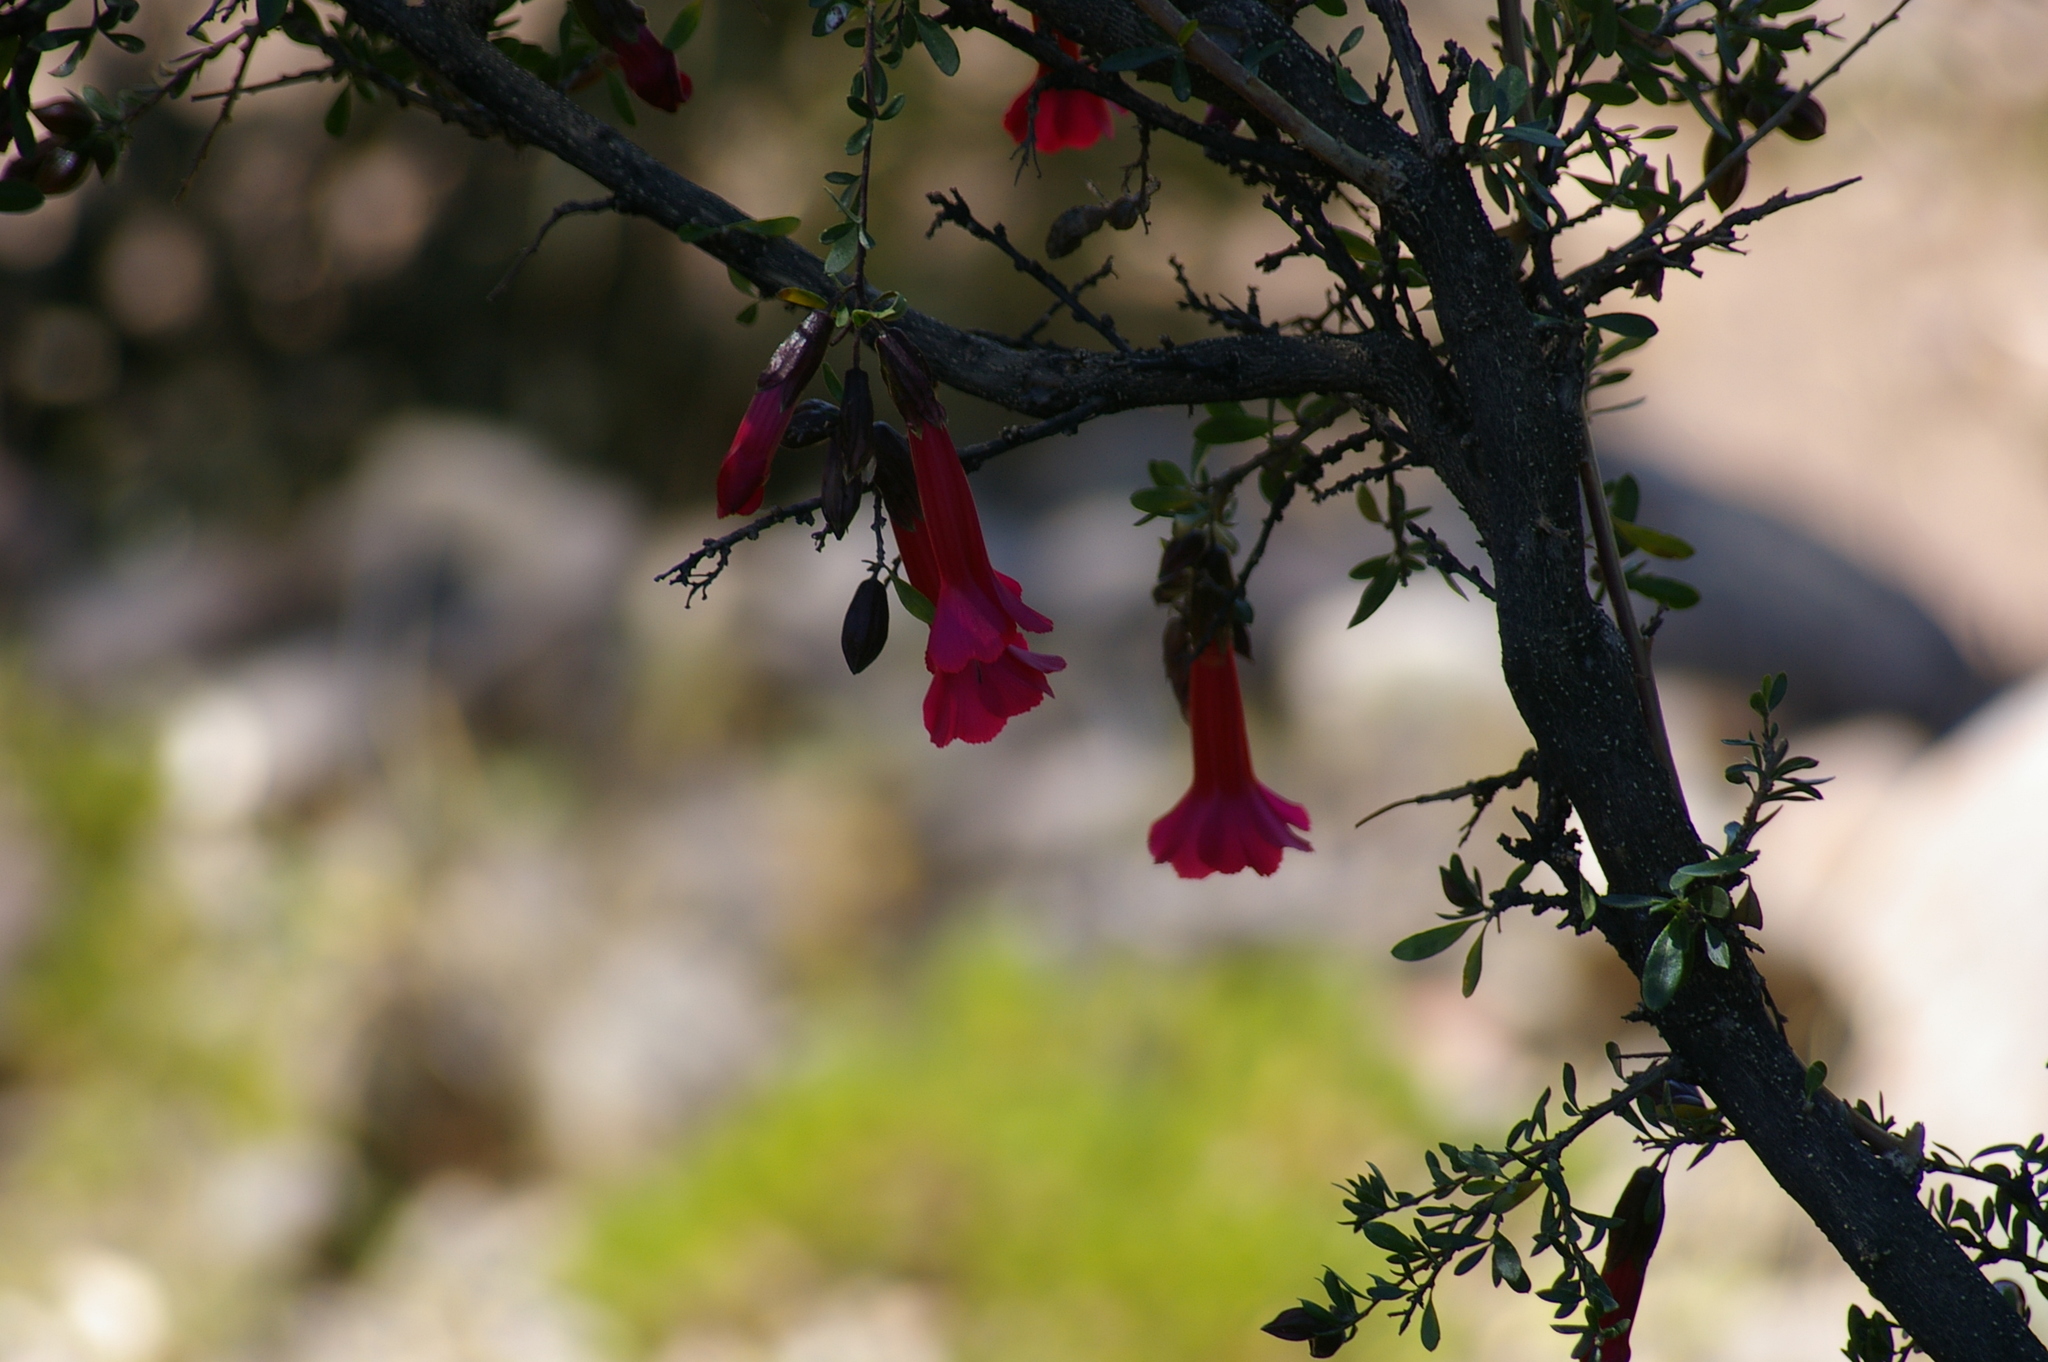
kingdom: Plantae
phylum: Tracheophyta
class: Magnoliopsida
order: Ericales
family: Polemoniaceae
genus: Cantua
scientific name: Cantua buxifolia
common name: Sacred-flower-of-the-incas
